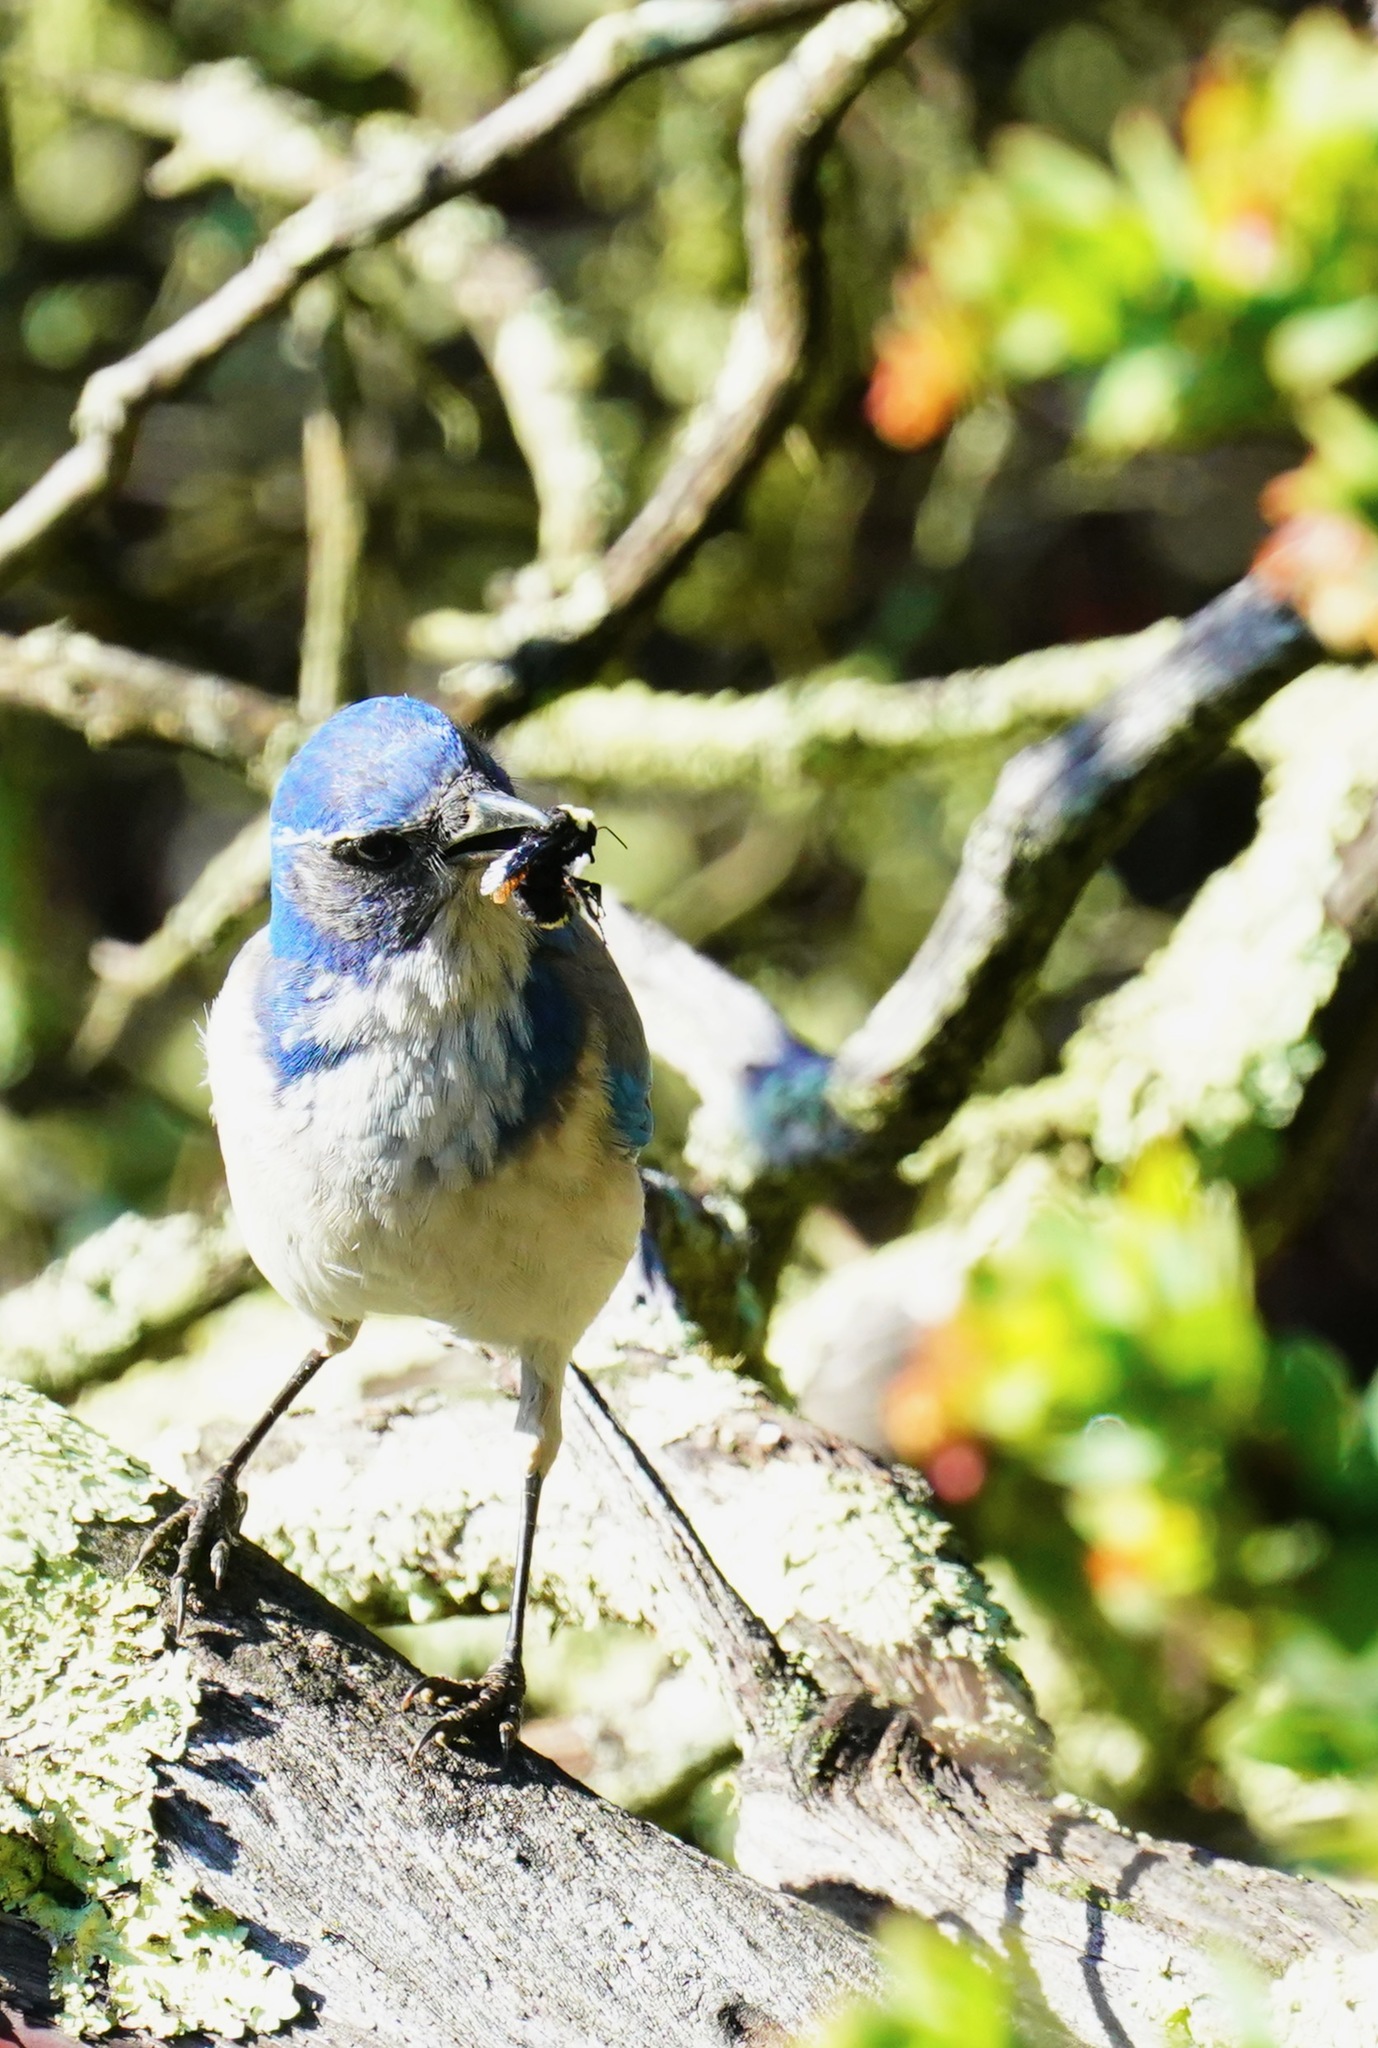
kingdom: Animalia
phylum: Chordata
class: Aves
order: Passeriformes
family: Corvidae
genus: Aphelocoma
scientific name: Aphelocoma californica
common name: California scrub-jay
